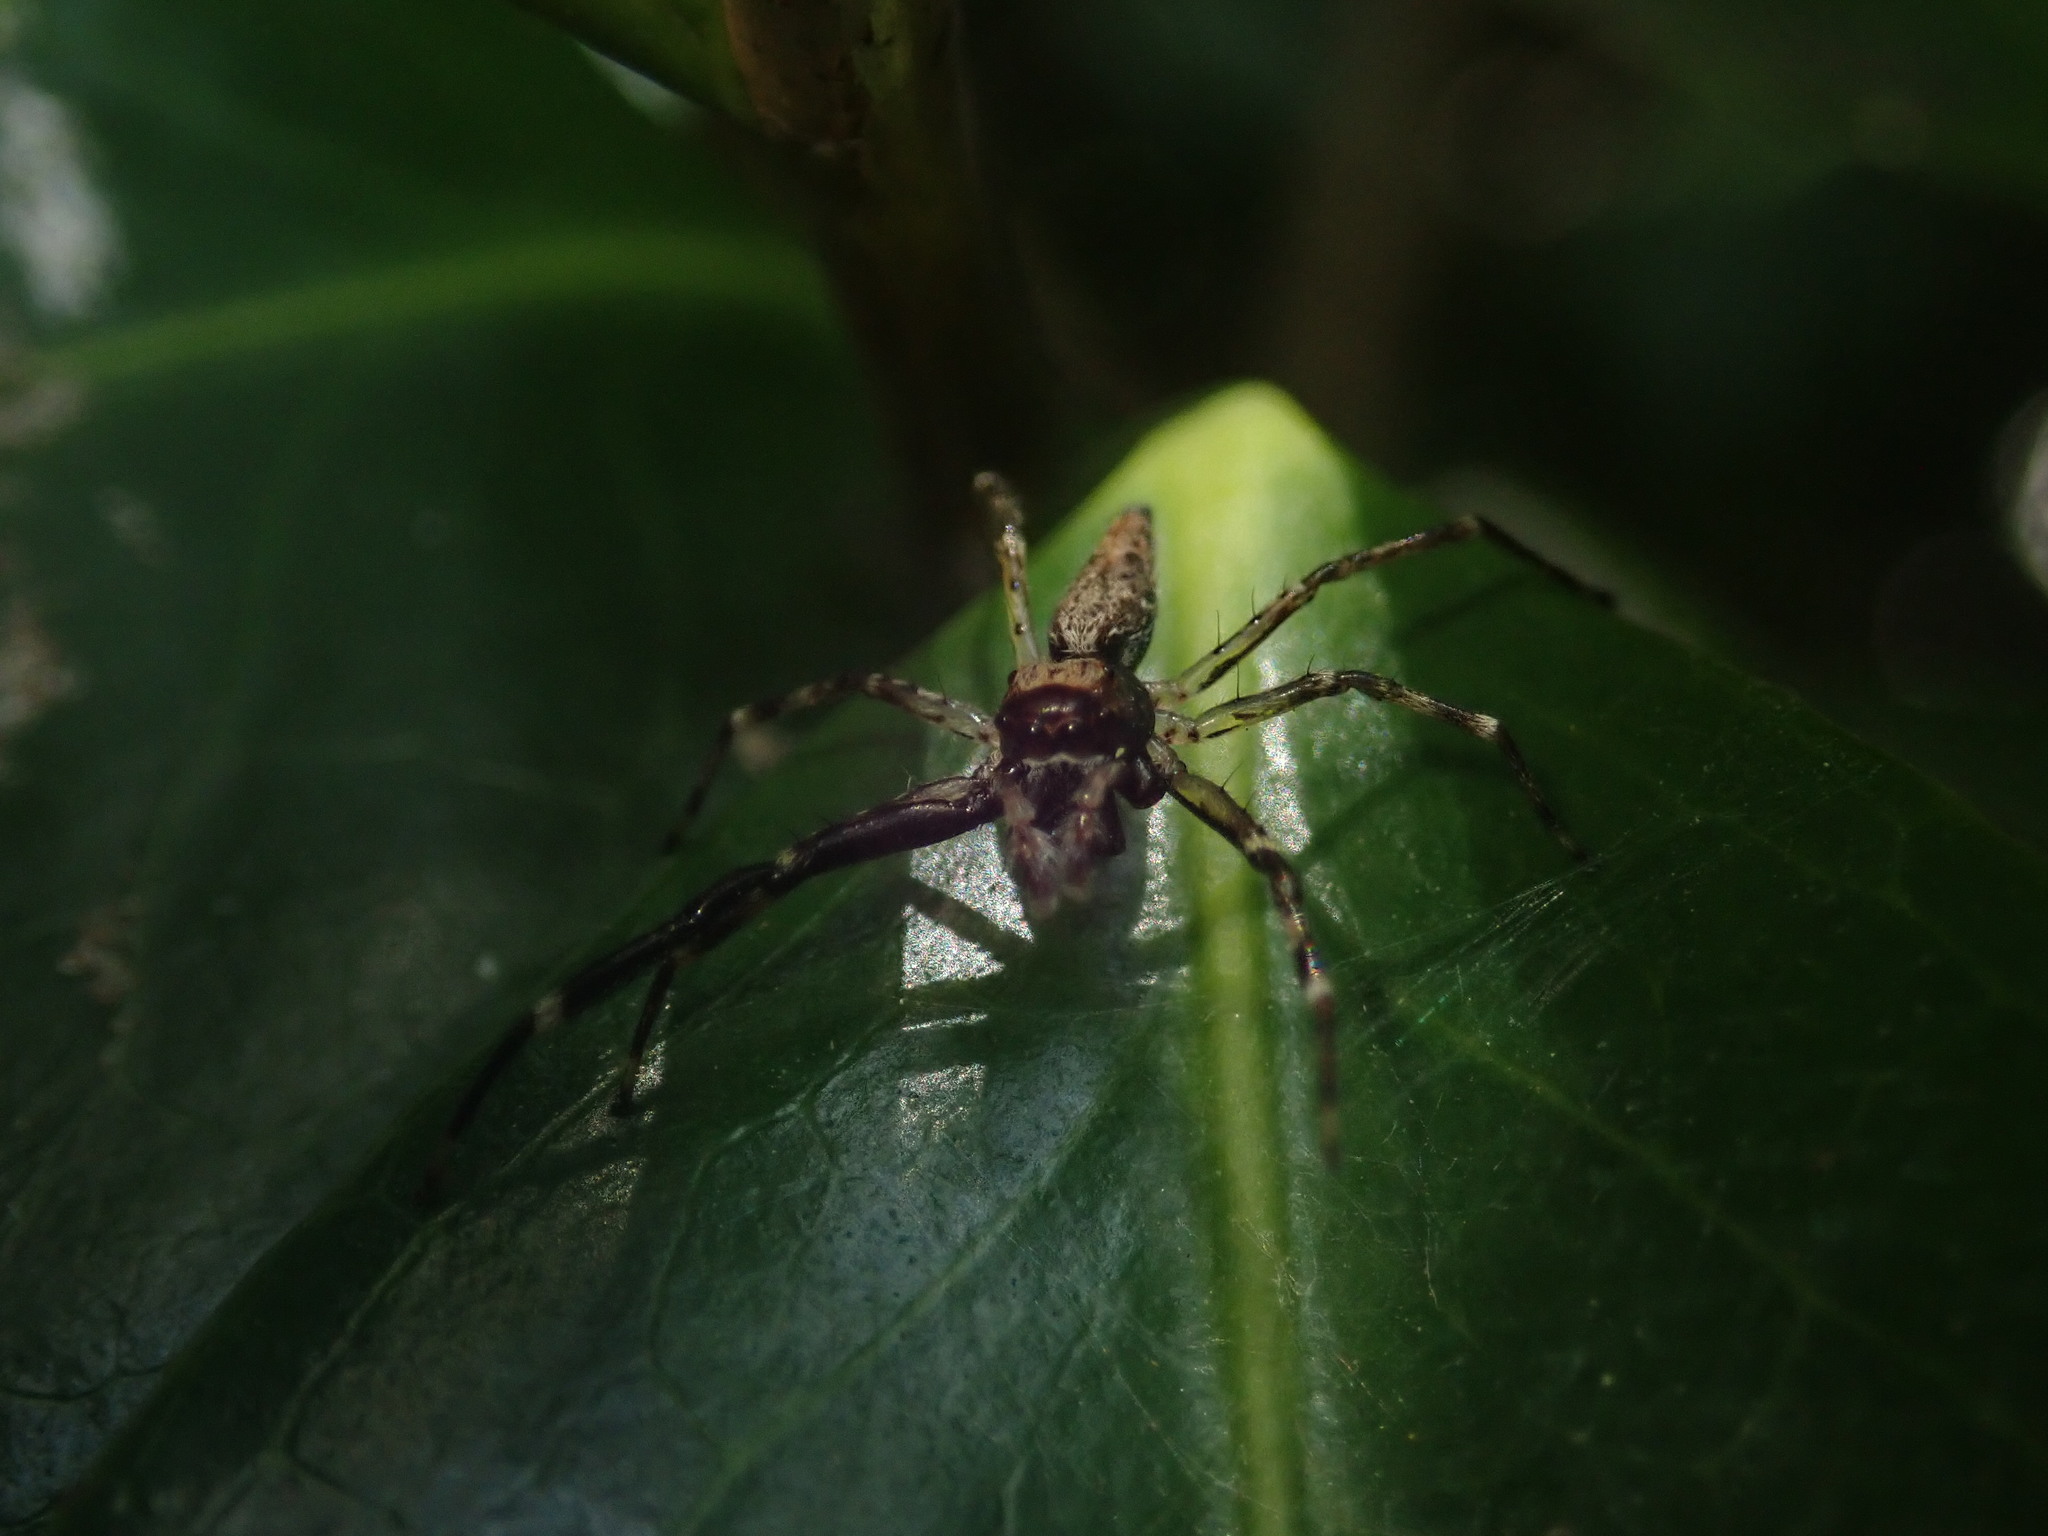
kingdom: Animalia
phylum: Arthropoda
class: Arachnida
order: Araneae
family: Salticidae
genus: Helpis
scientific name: Helpis minitabunda
